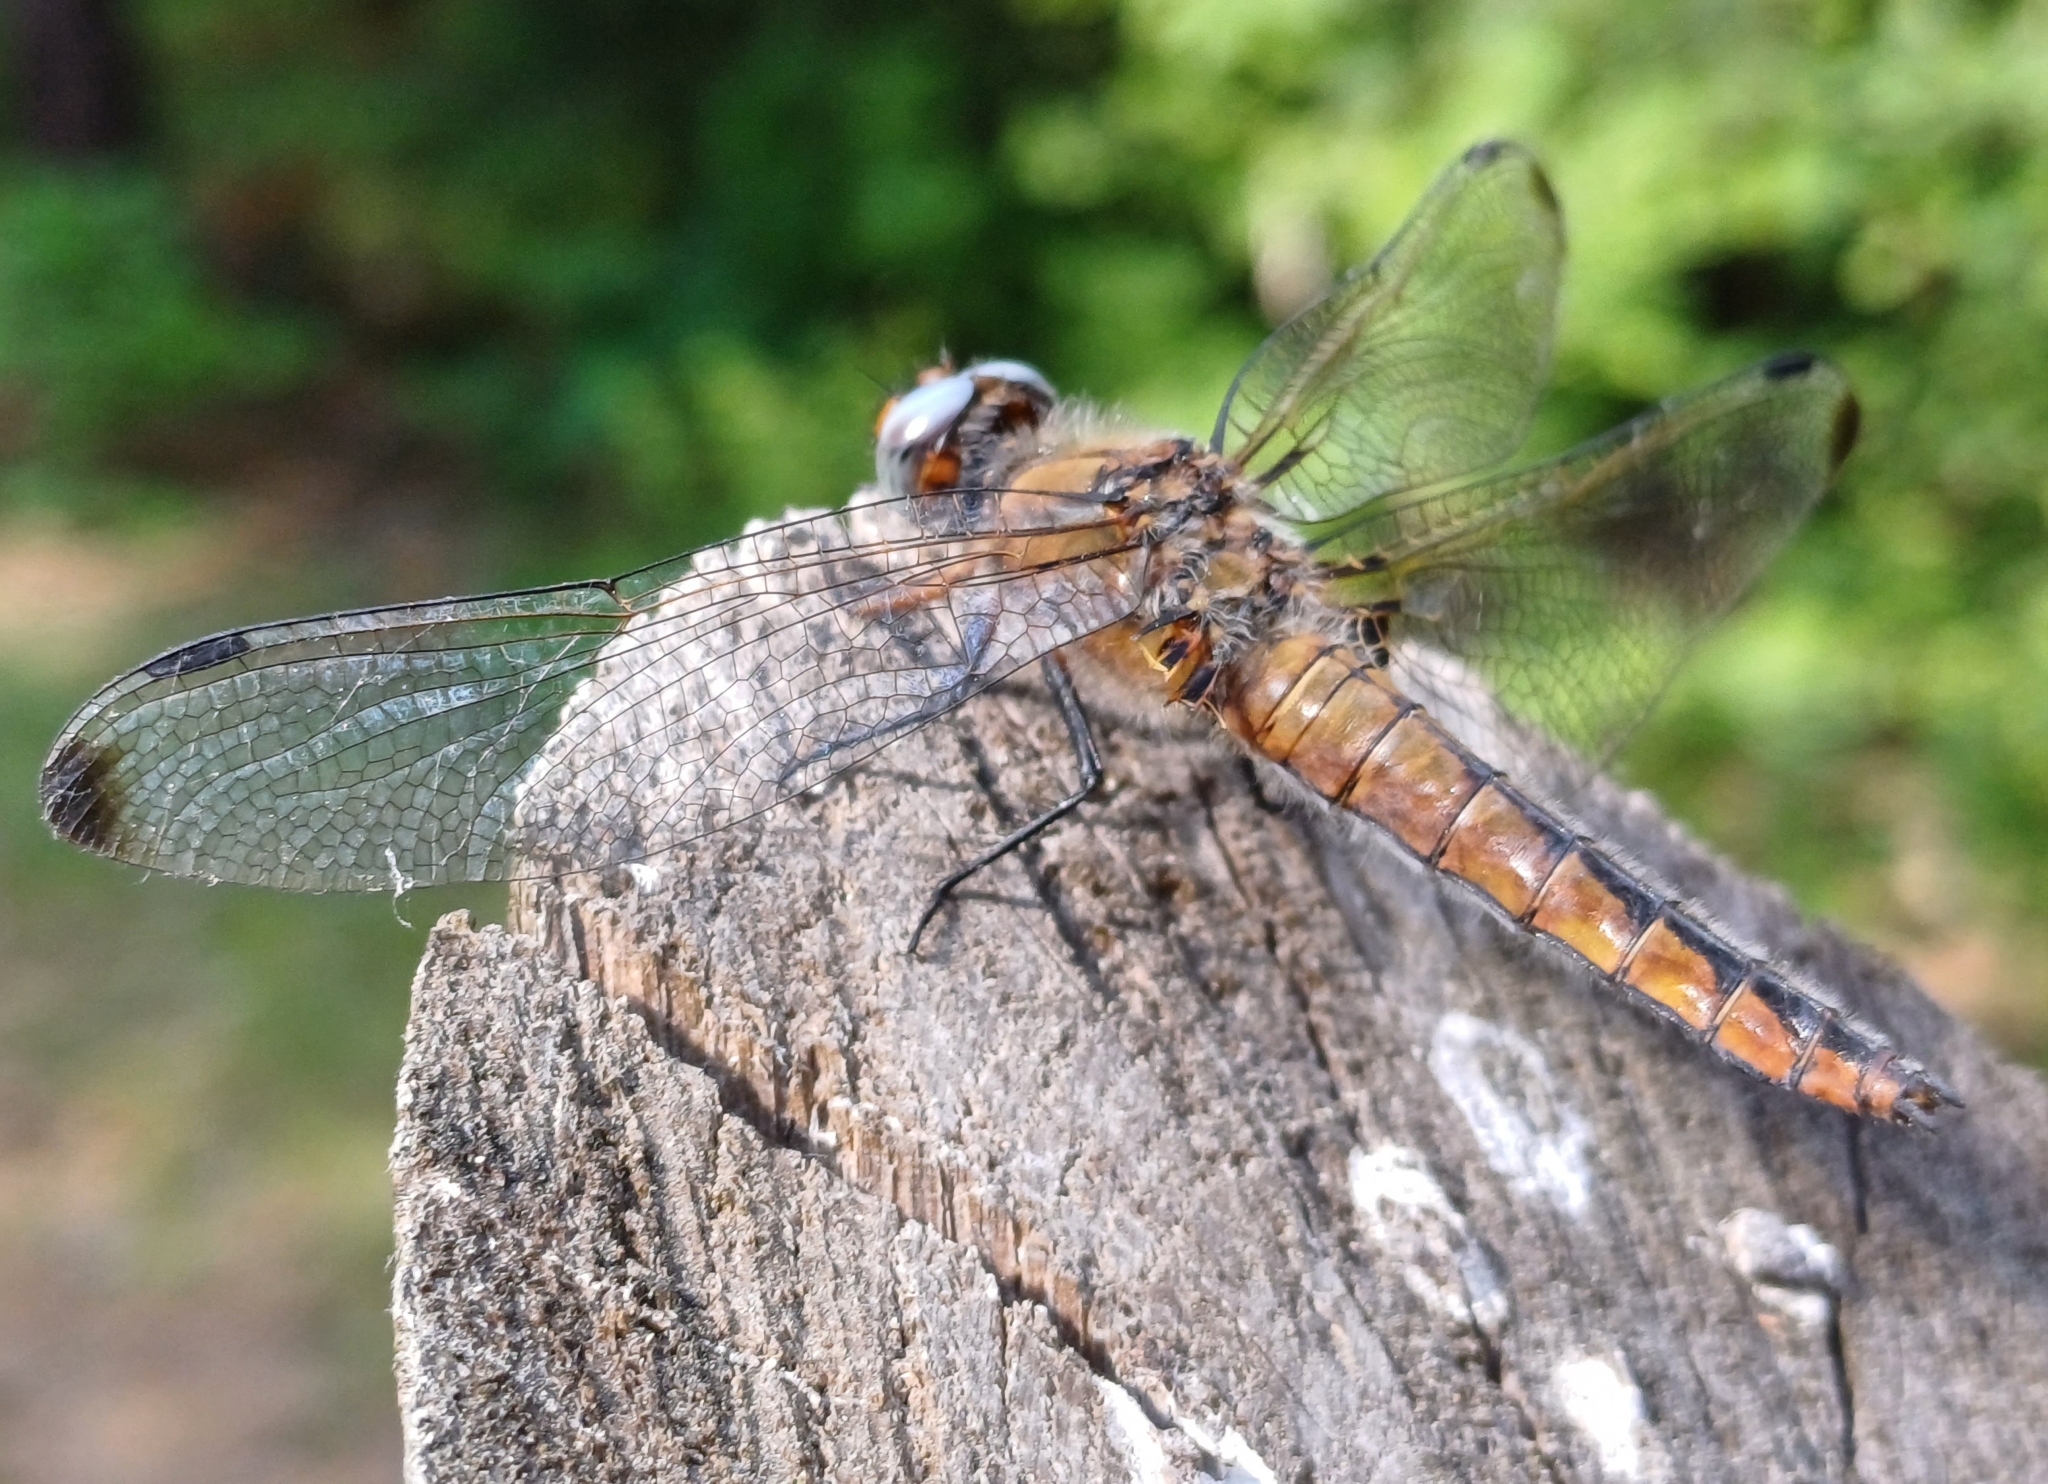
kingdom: Animalia
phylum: Arthropoda
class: Insecta
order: Odonata
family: Libellulidae
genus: Libellula
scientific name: Libellula fulva
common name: Blue chaser
